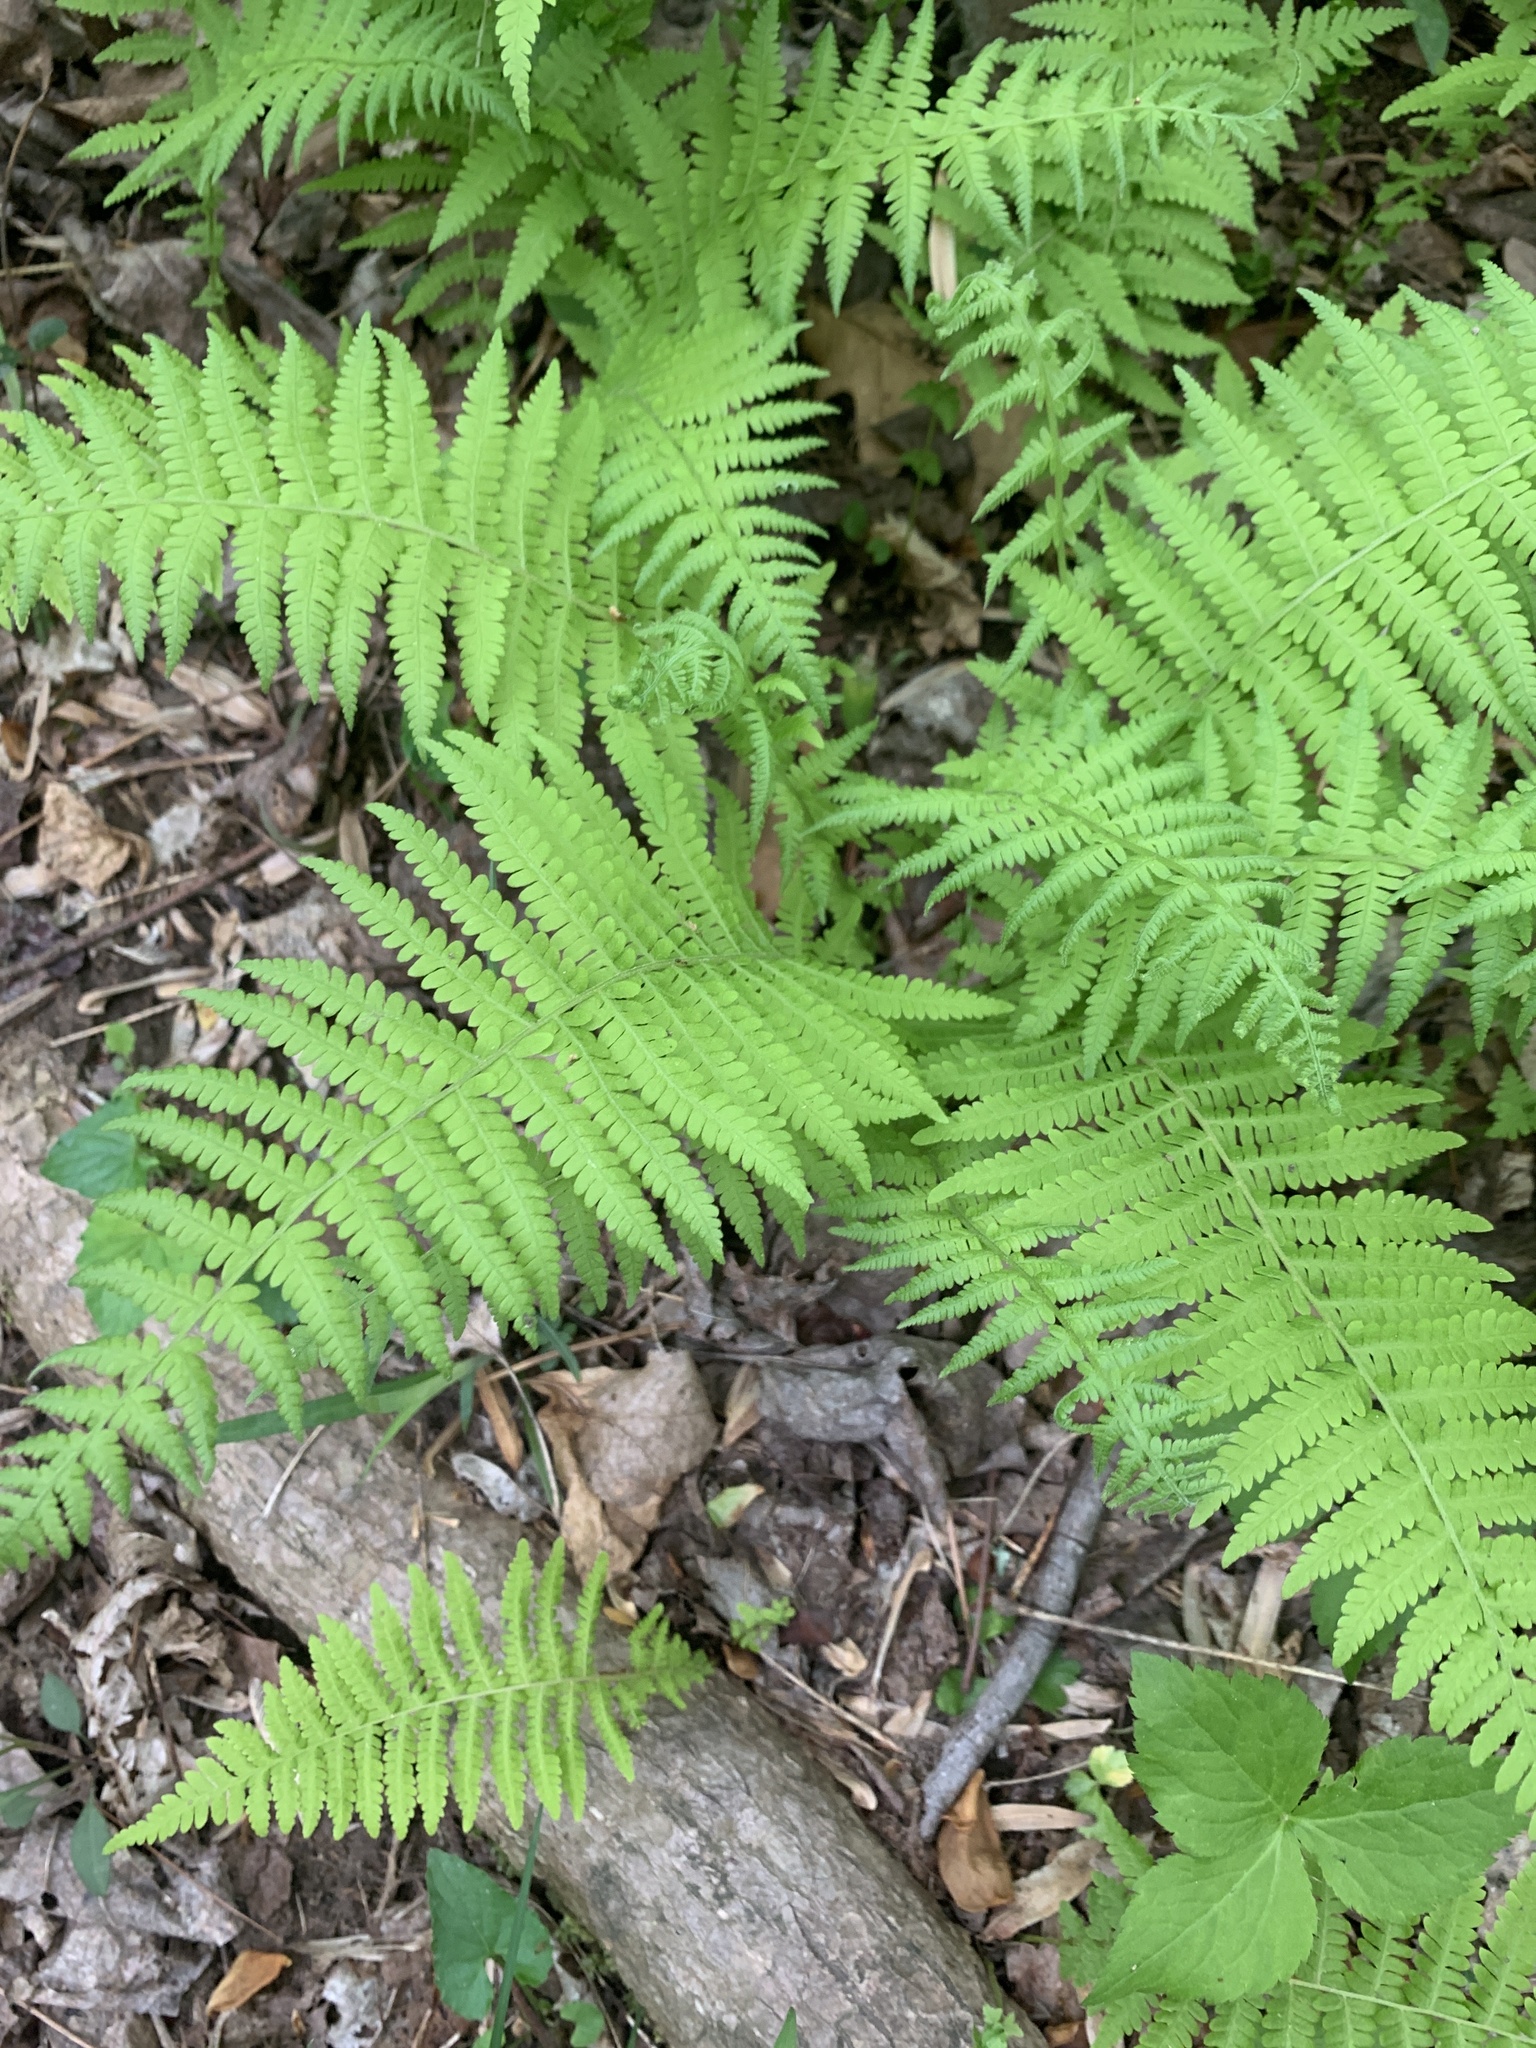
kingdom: Plantae
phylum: Tracheophyta
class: Polypodiopsida
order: Polypodiales
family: Thelypteridaceae
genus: Amauropelta
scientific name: Amauropelta noveboracensis
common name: New york fern
